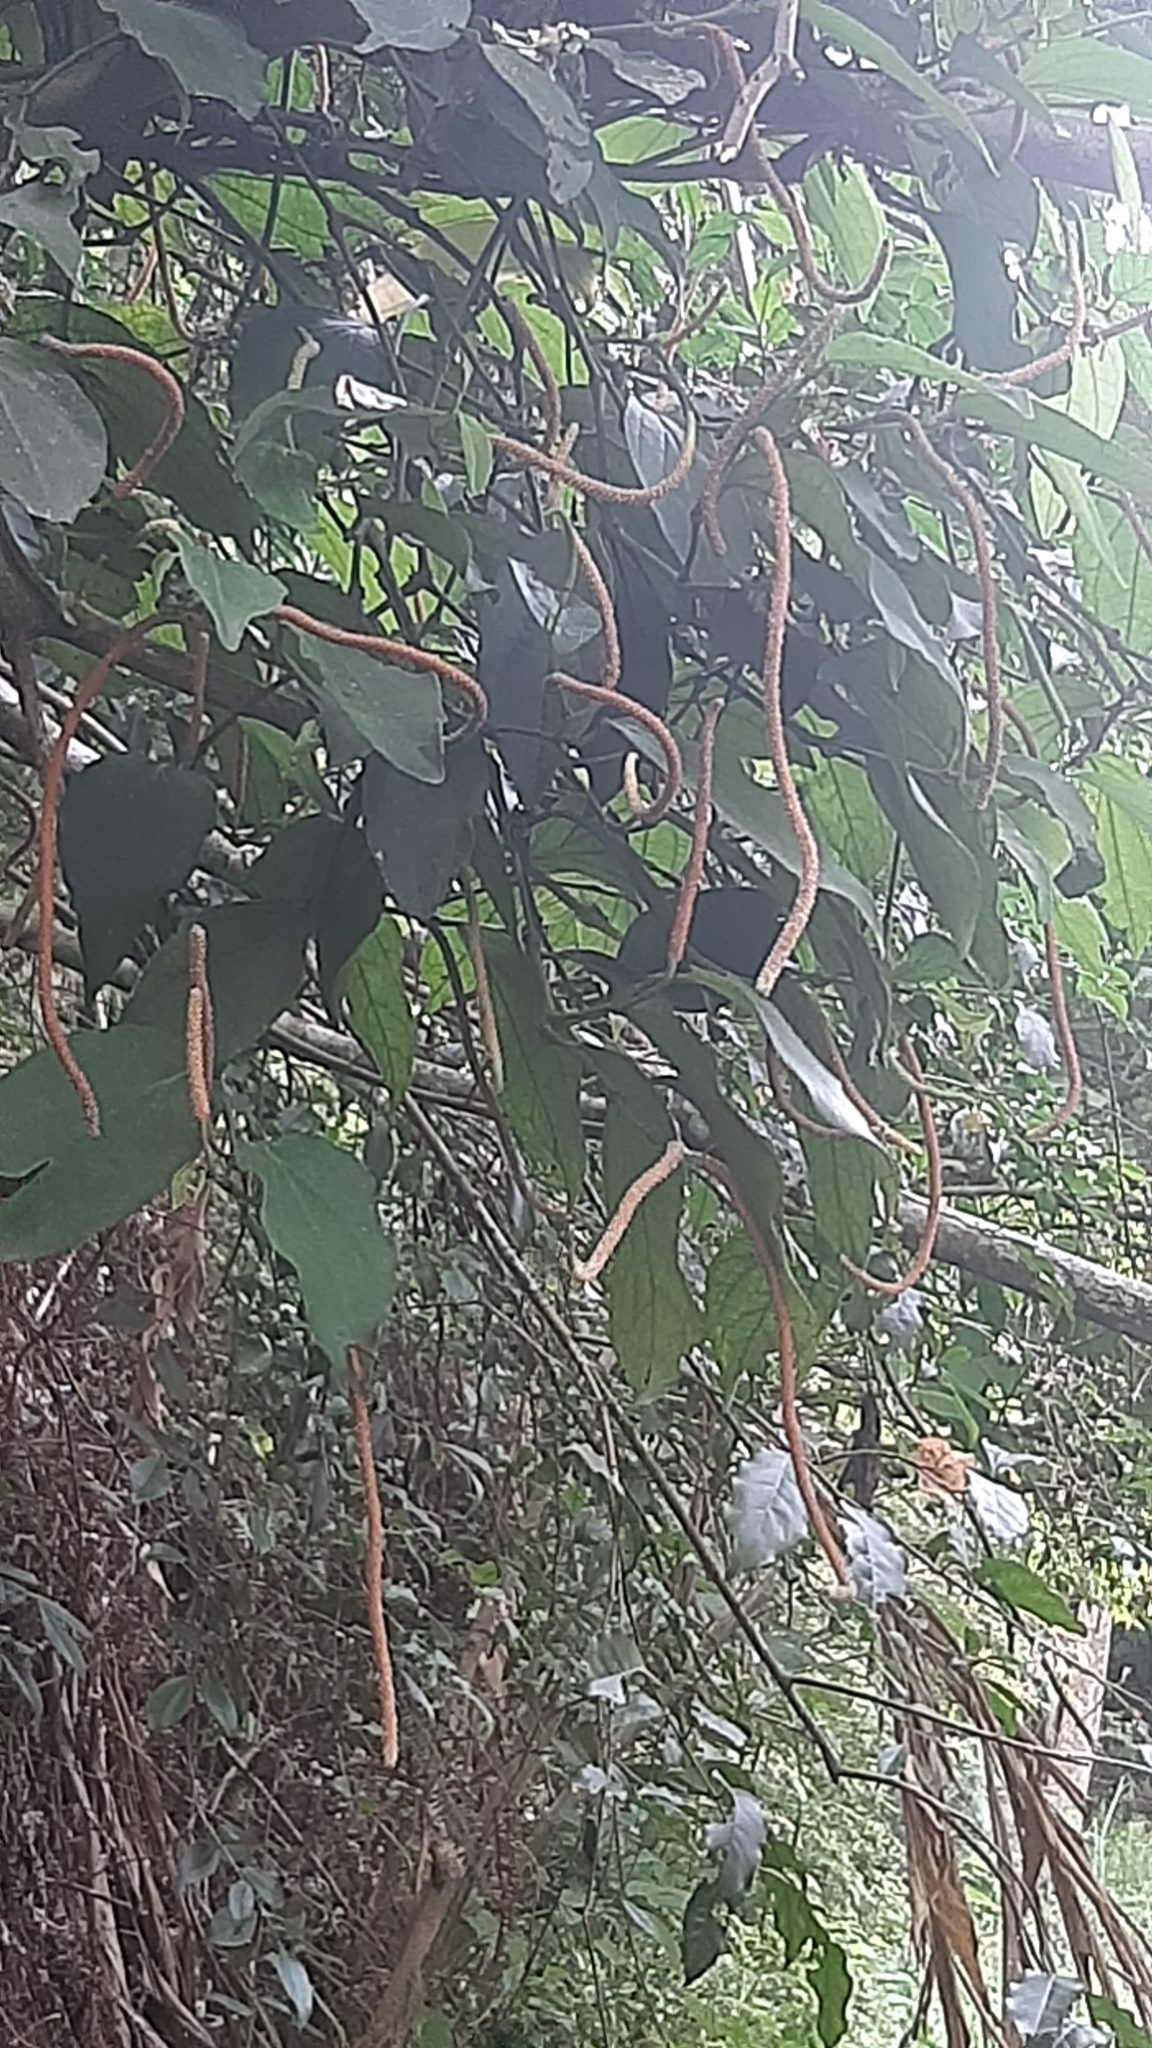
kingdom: Plantae
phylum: Tracheophyta
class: Magnoliopsida
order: Piperales
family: Piperaceae
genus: Piper
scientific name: Piper kadsura
